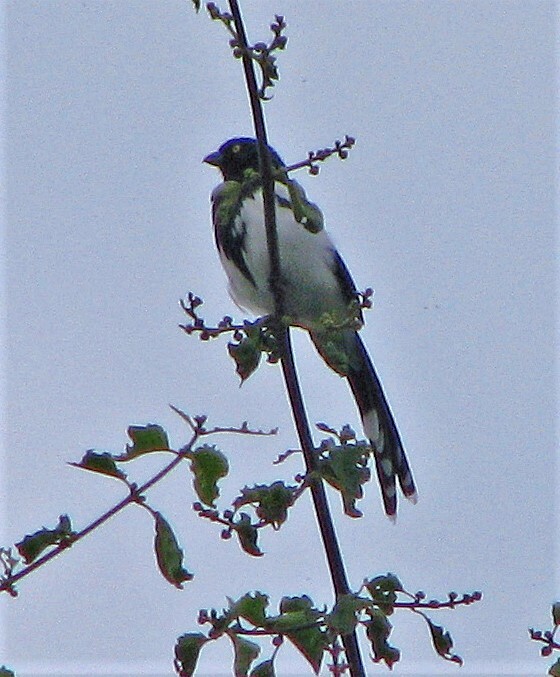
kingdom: Animalia
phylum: Chordata
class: Aves
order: Passeriformes
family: Thraupidae
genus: Cissopis
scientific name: Cissopis leverianus
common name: Magpie tanager
